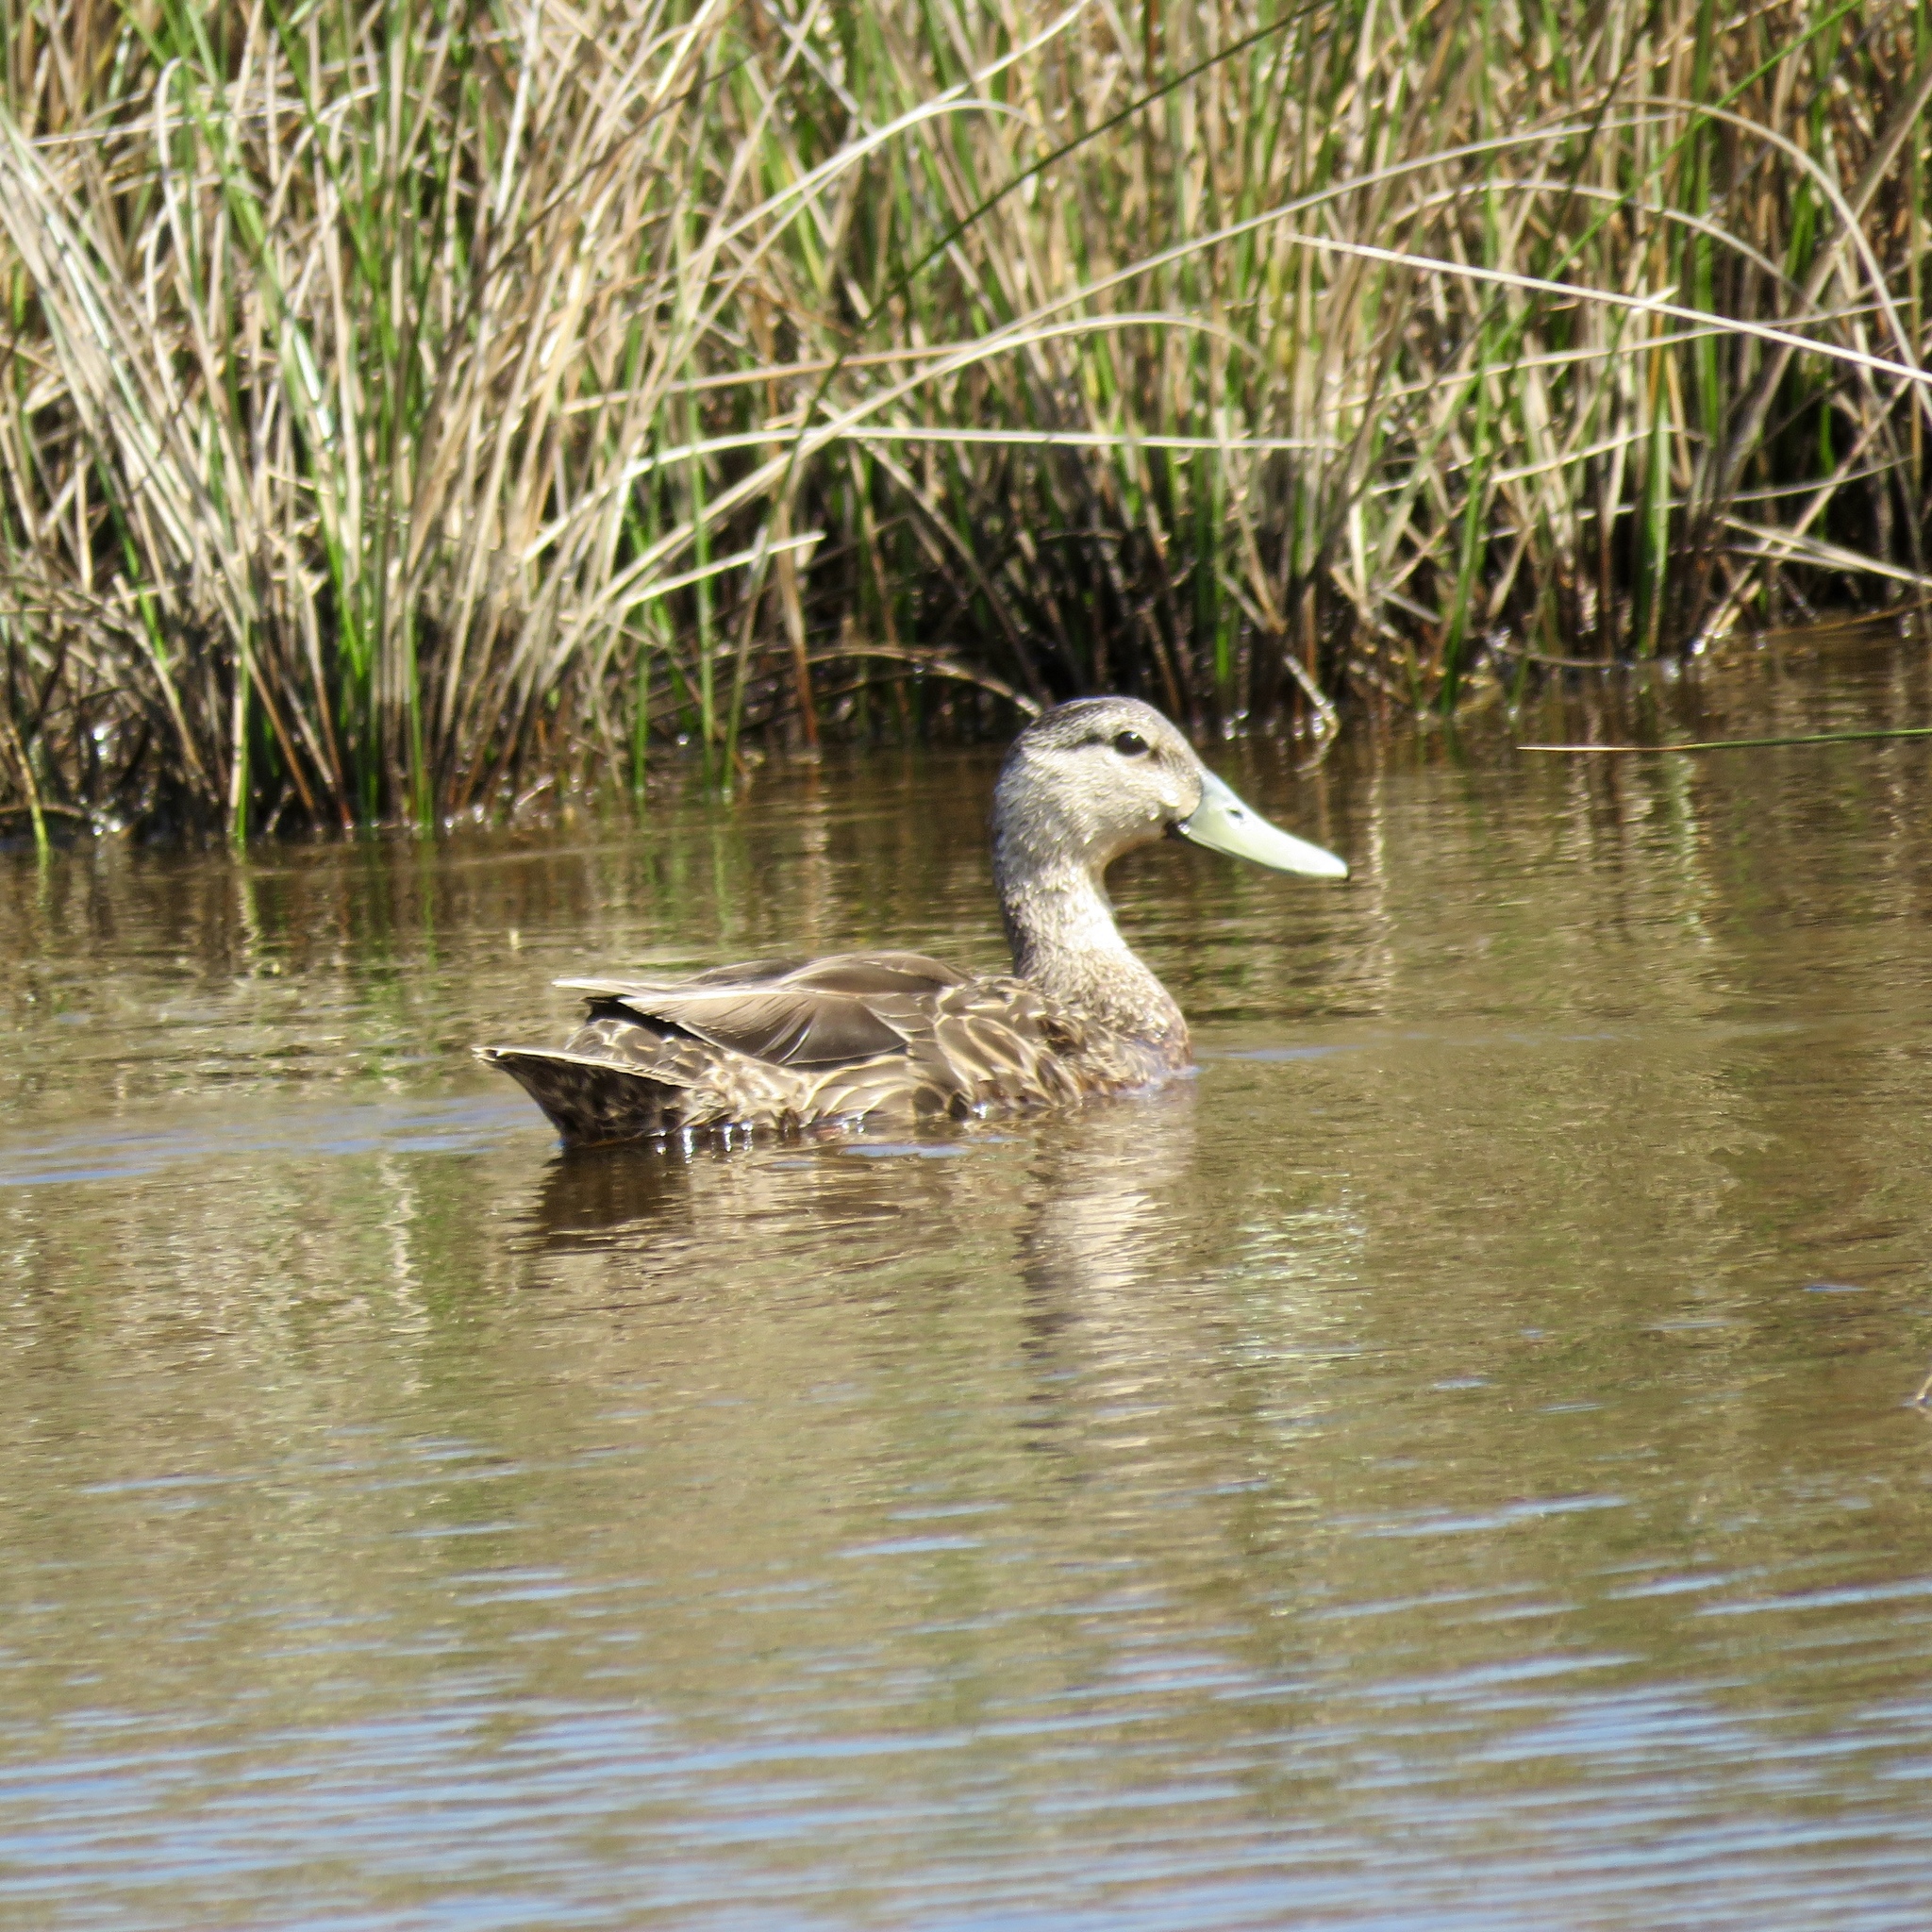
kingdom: Animalia
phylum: Chordata
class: Aves
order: Anseriformes
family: Anatidae
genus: Anas
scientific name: Anas fulvigula
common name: Mottled duck
